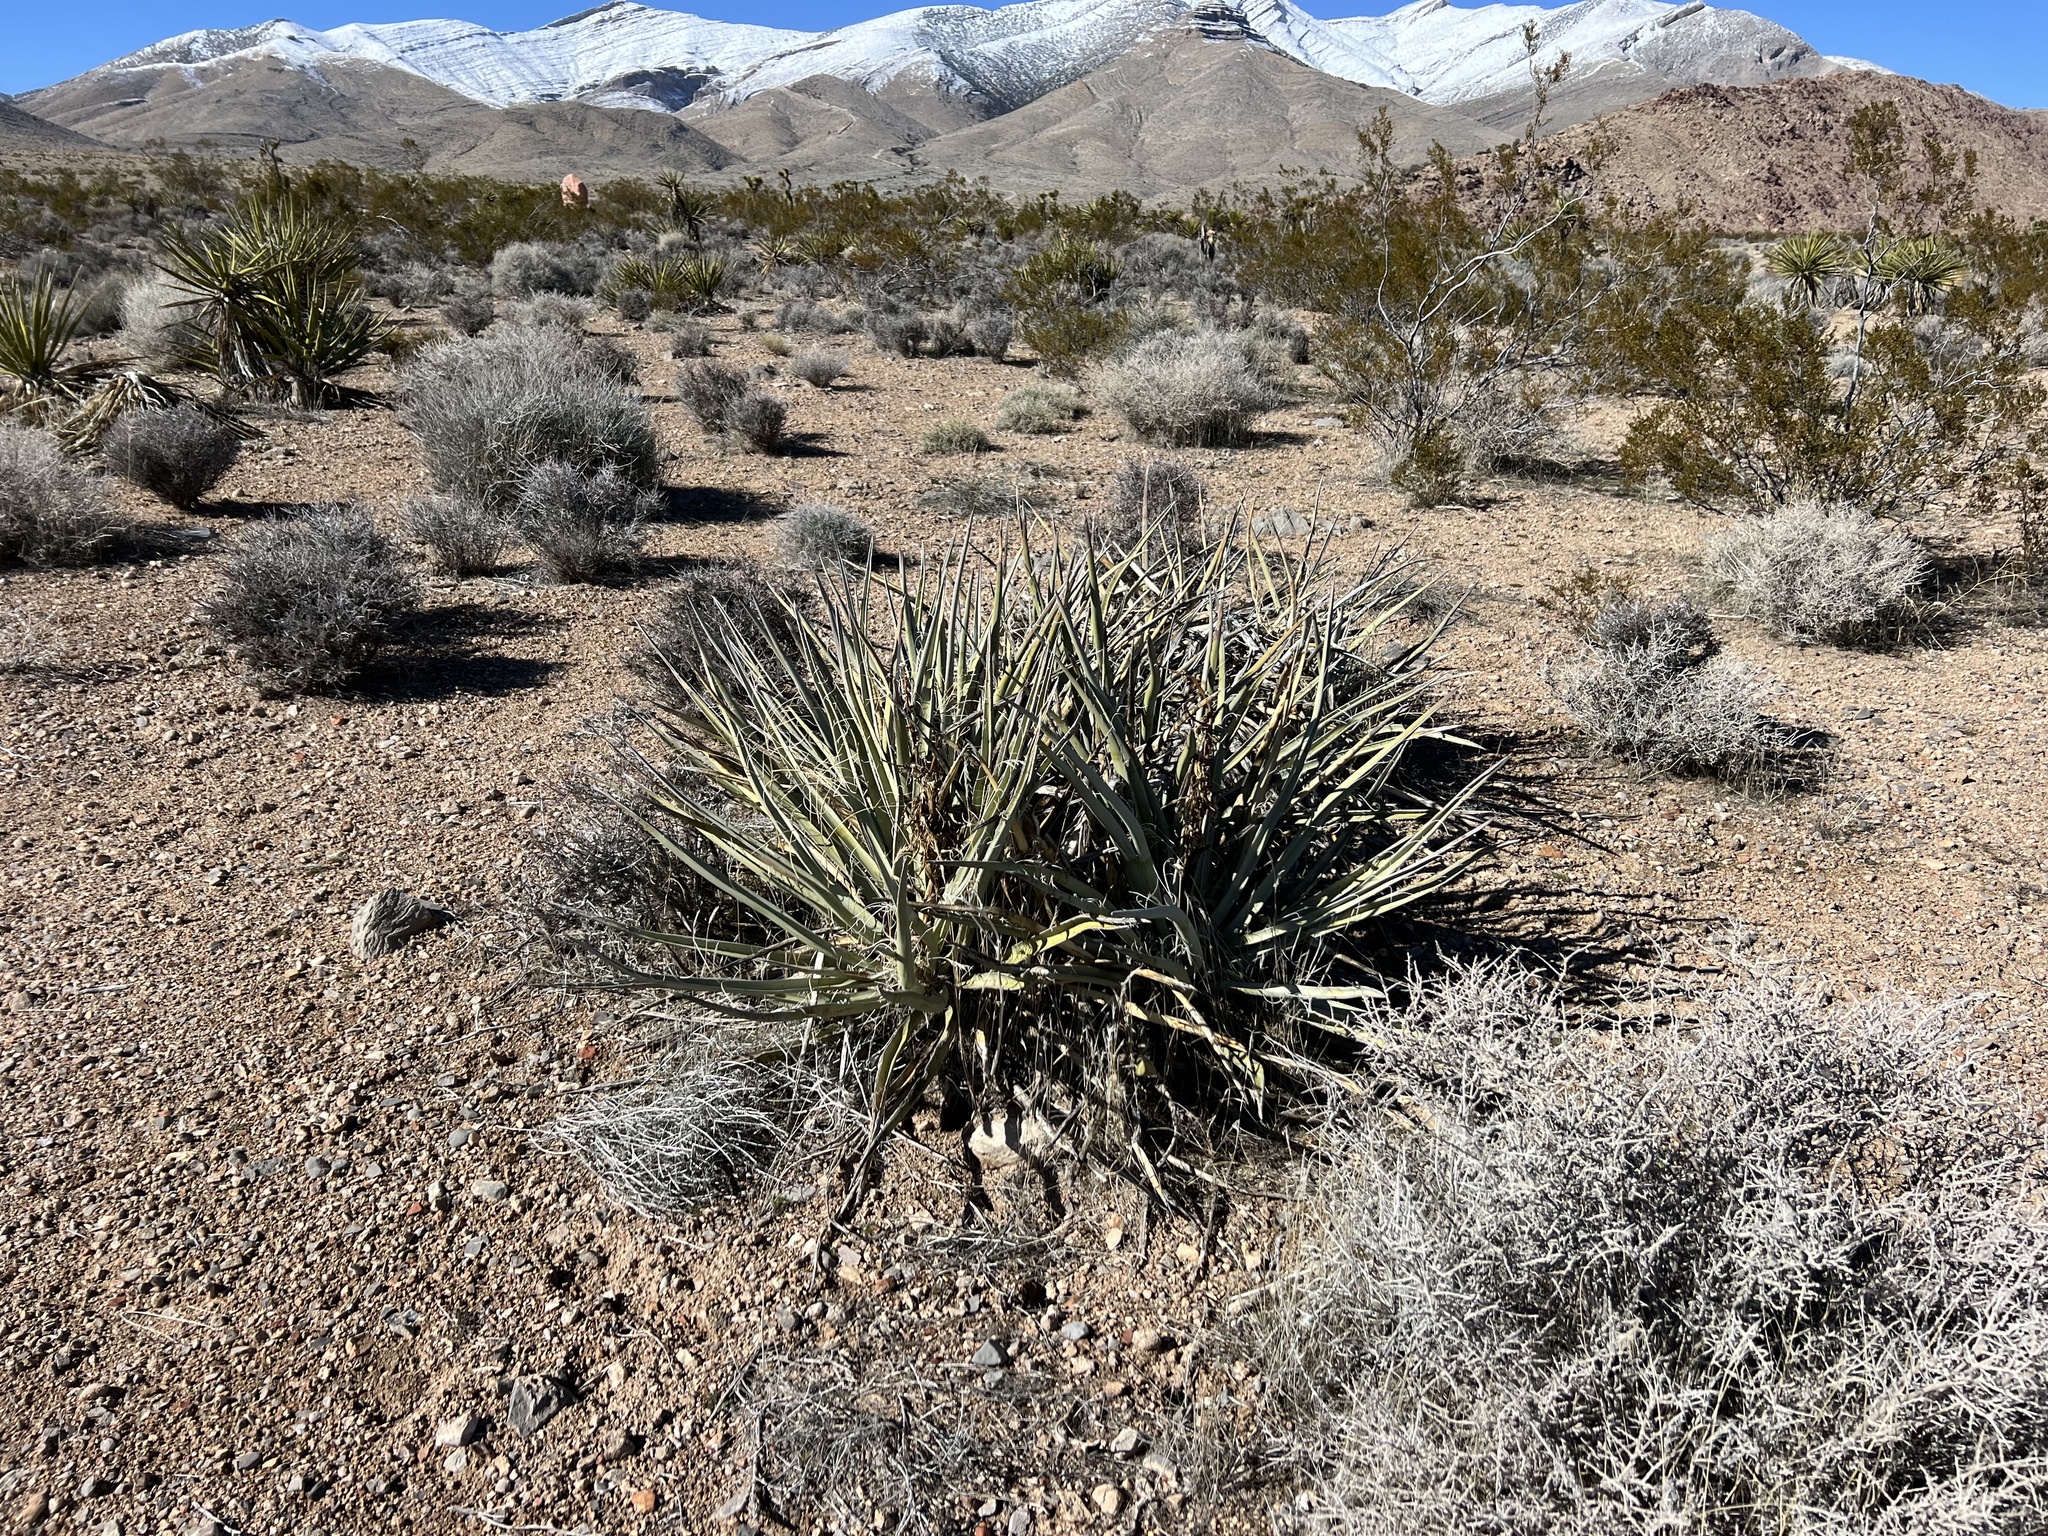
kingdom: Plantae
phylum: Tracheophyta
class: Liliopsida
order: Asparagales
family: Asparagaceae
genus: Yucca
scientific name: Yucca baccata
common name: Banana yucca
